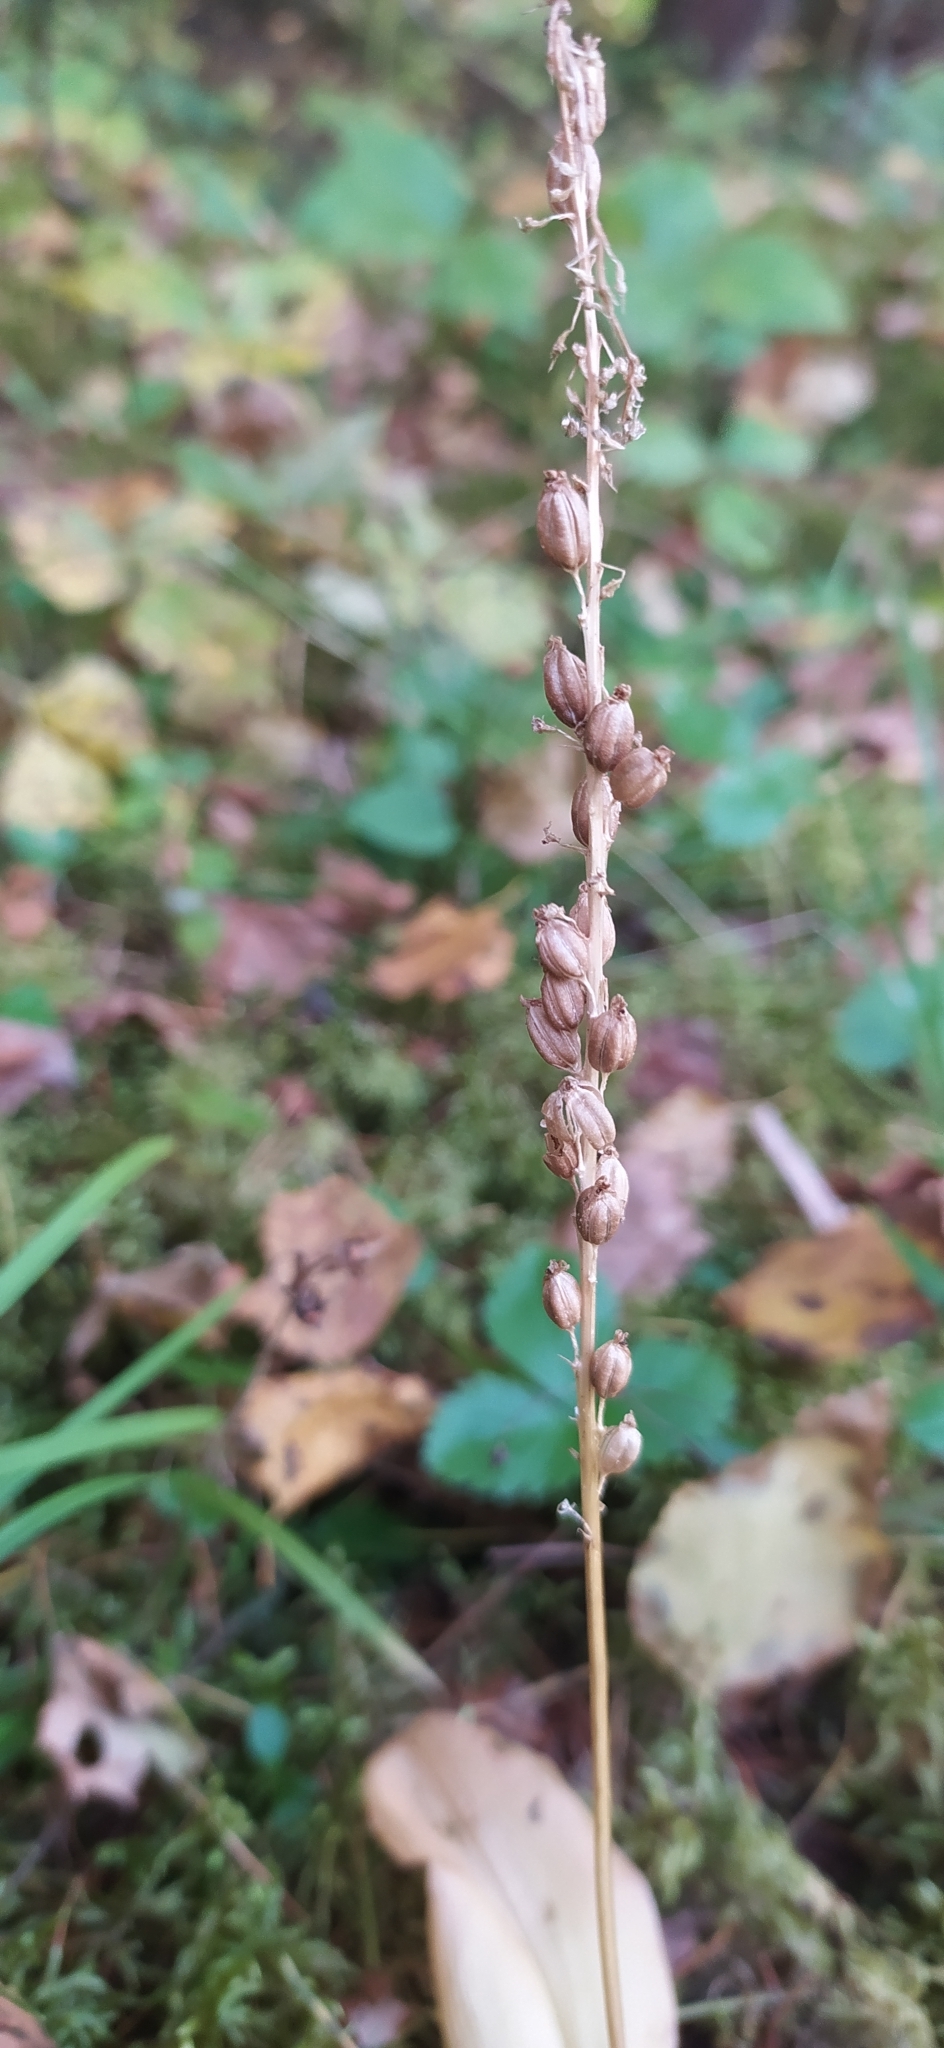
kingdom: Plantae
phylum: Tracheophyta
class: Liliopsida
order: Asparagales
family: Orchidaceae
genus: Malaxis
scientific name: Malaxis monophyllos
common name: White adder's-mouth
